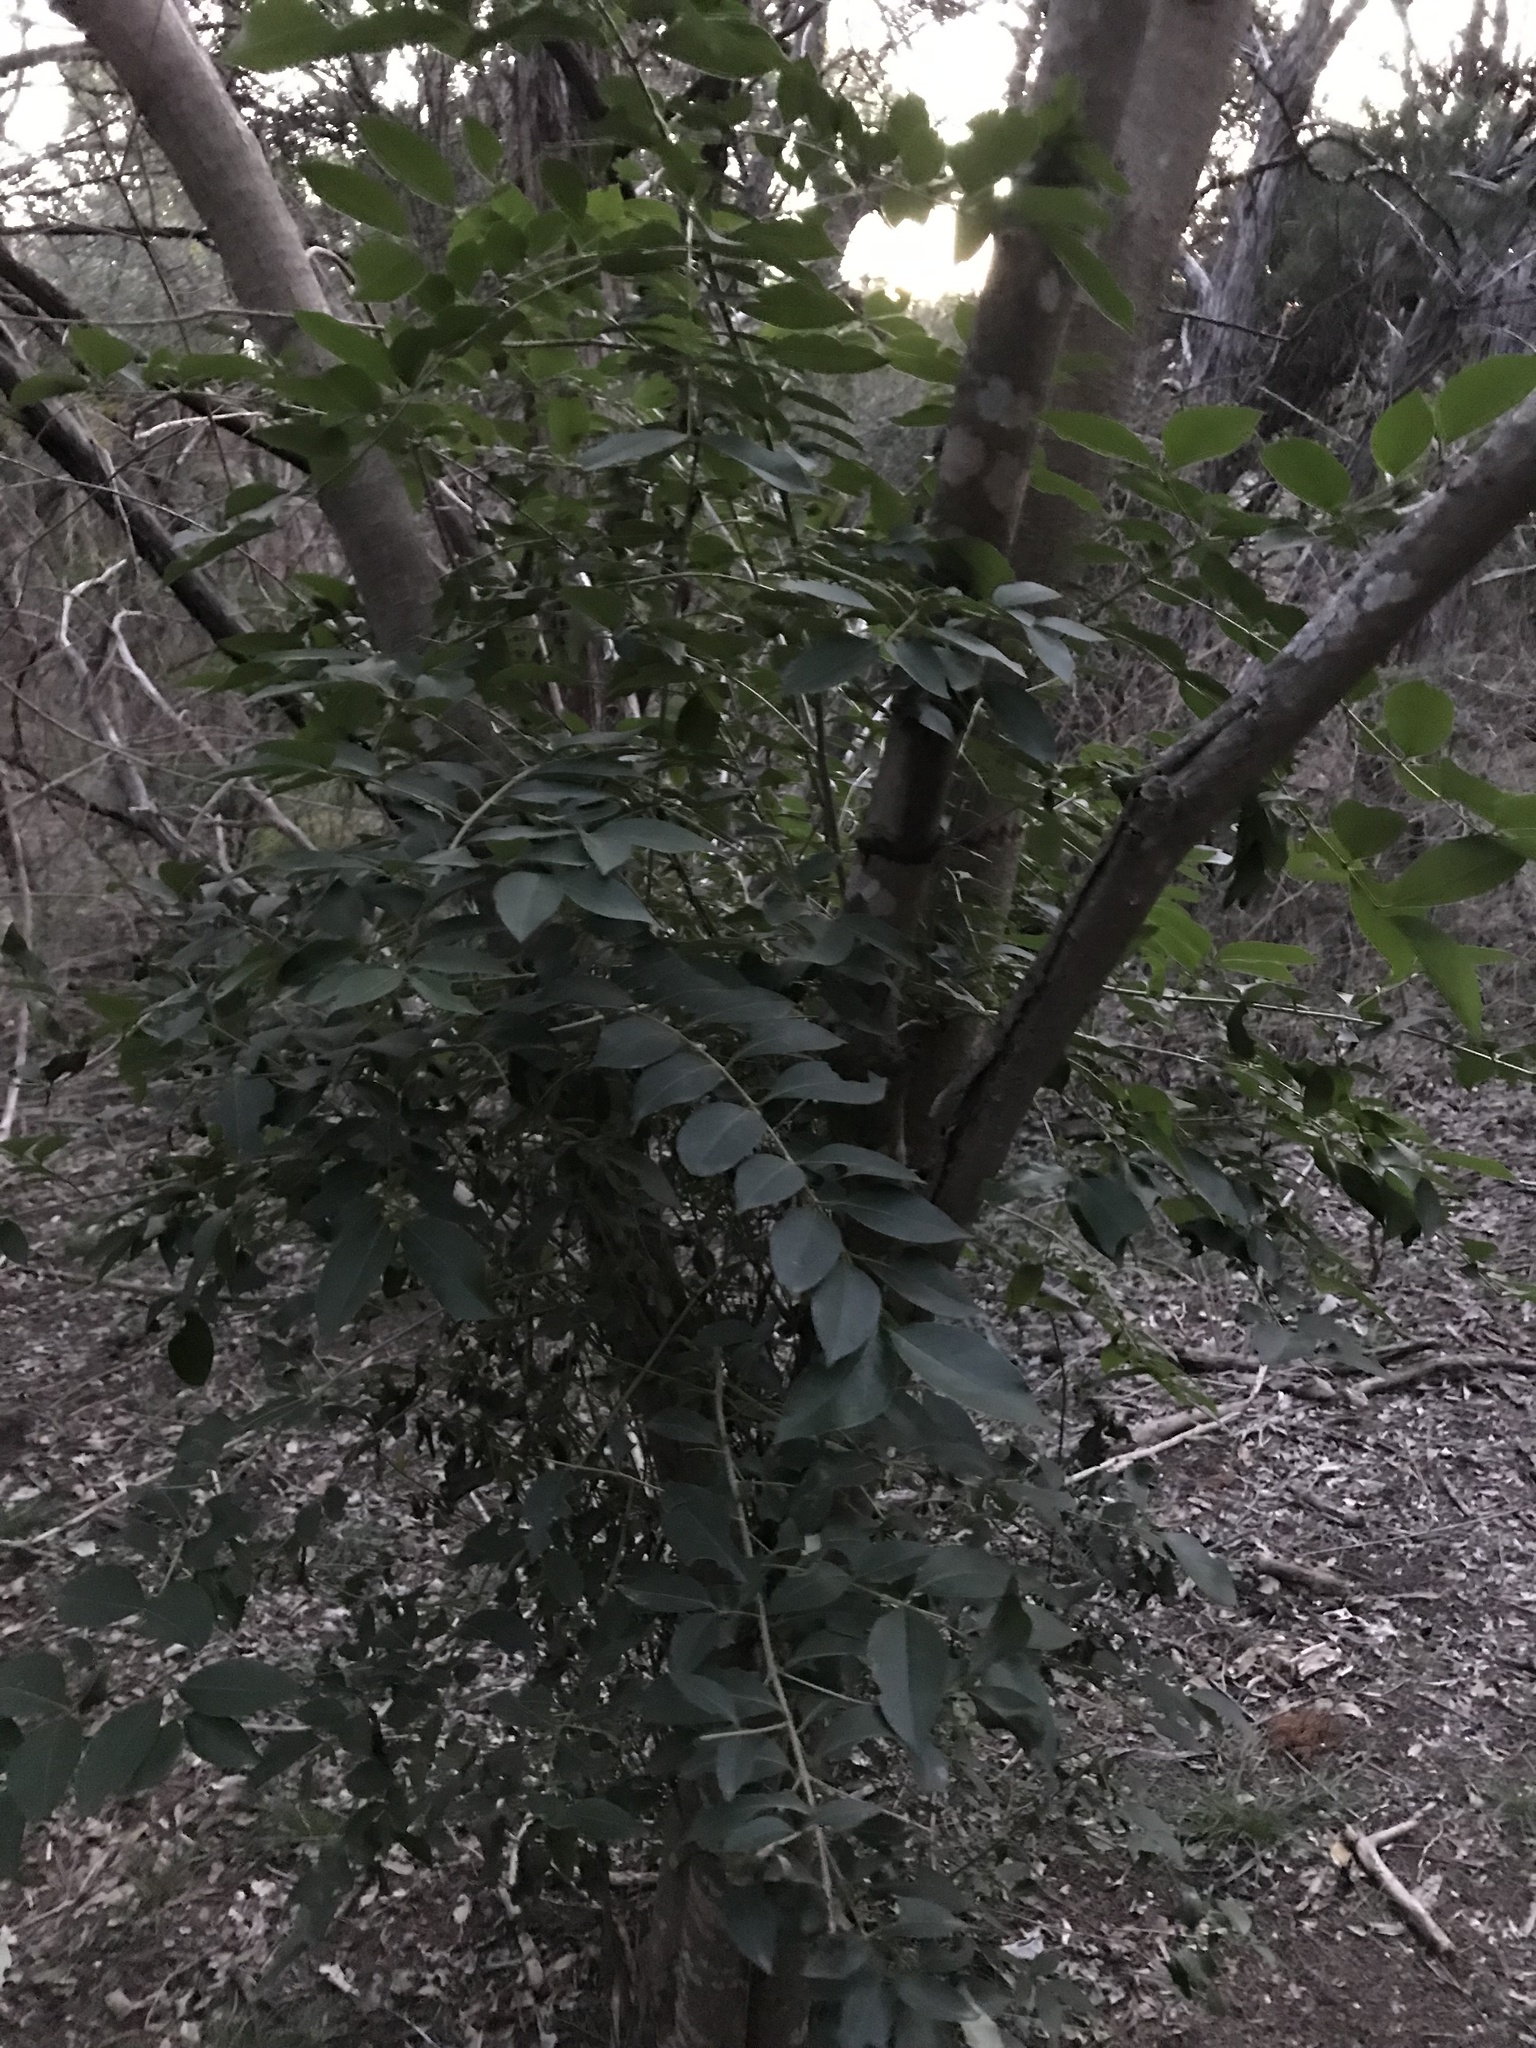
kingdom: Plantae
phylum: Tracheophyta
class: Magnoliopsida
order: Lamiales
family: Oleaceae
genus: Ligustrum
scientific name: Ligustrum lucidum
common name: Glossy privet
